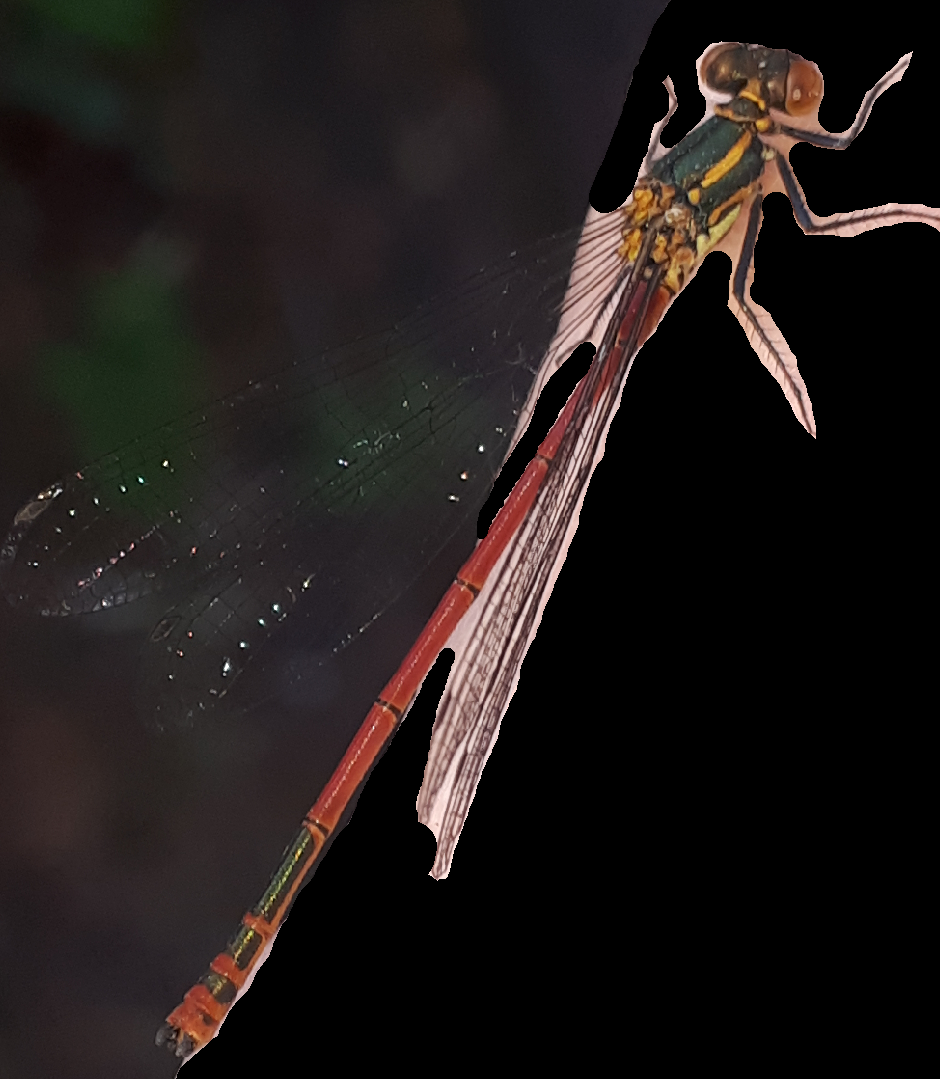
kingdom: Animalia
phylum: Arthropoda
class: Insecta
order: Odonata
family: Coenagrionidae
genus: Pyrrhosoma
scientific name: Pyrrhosoma nymphula
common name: Large red damsel
